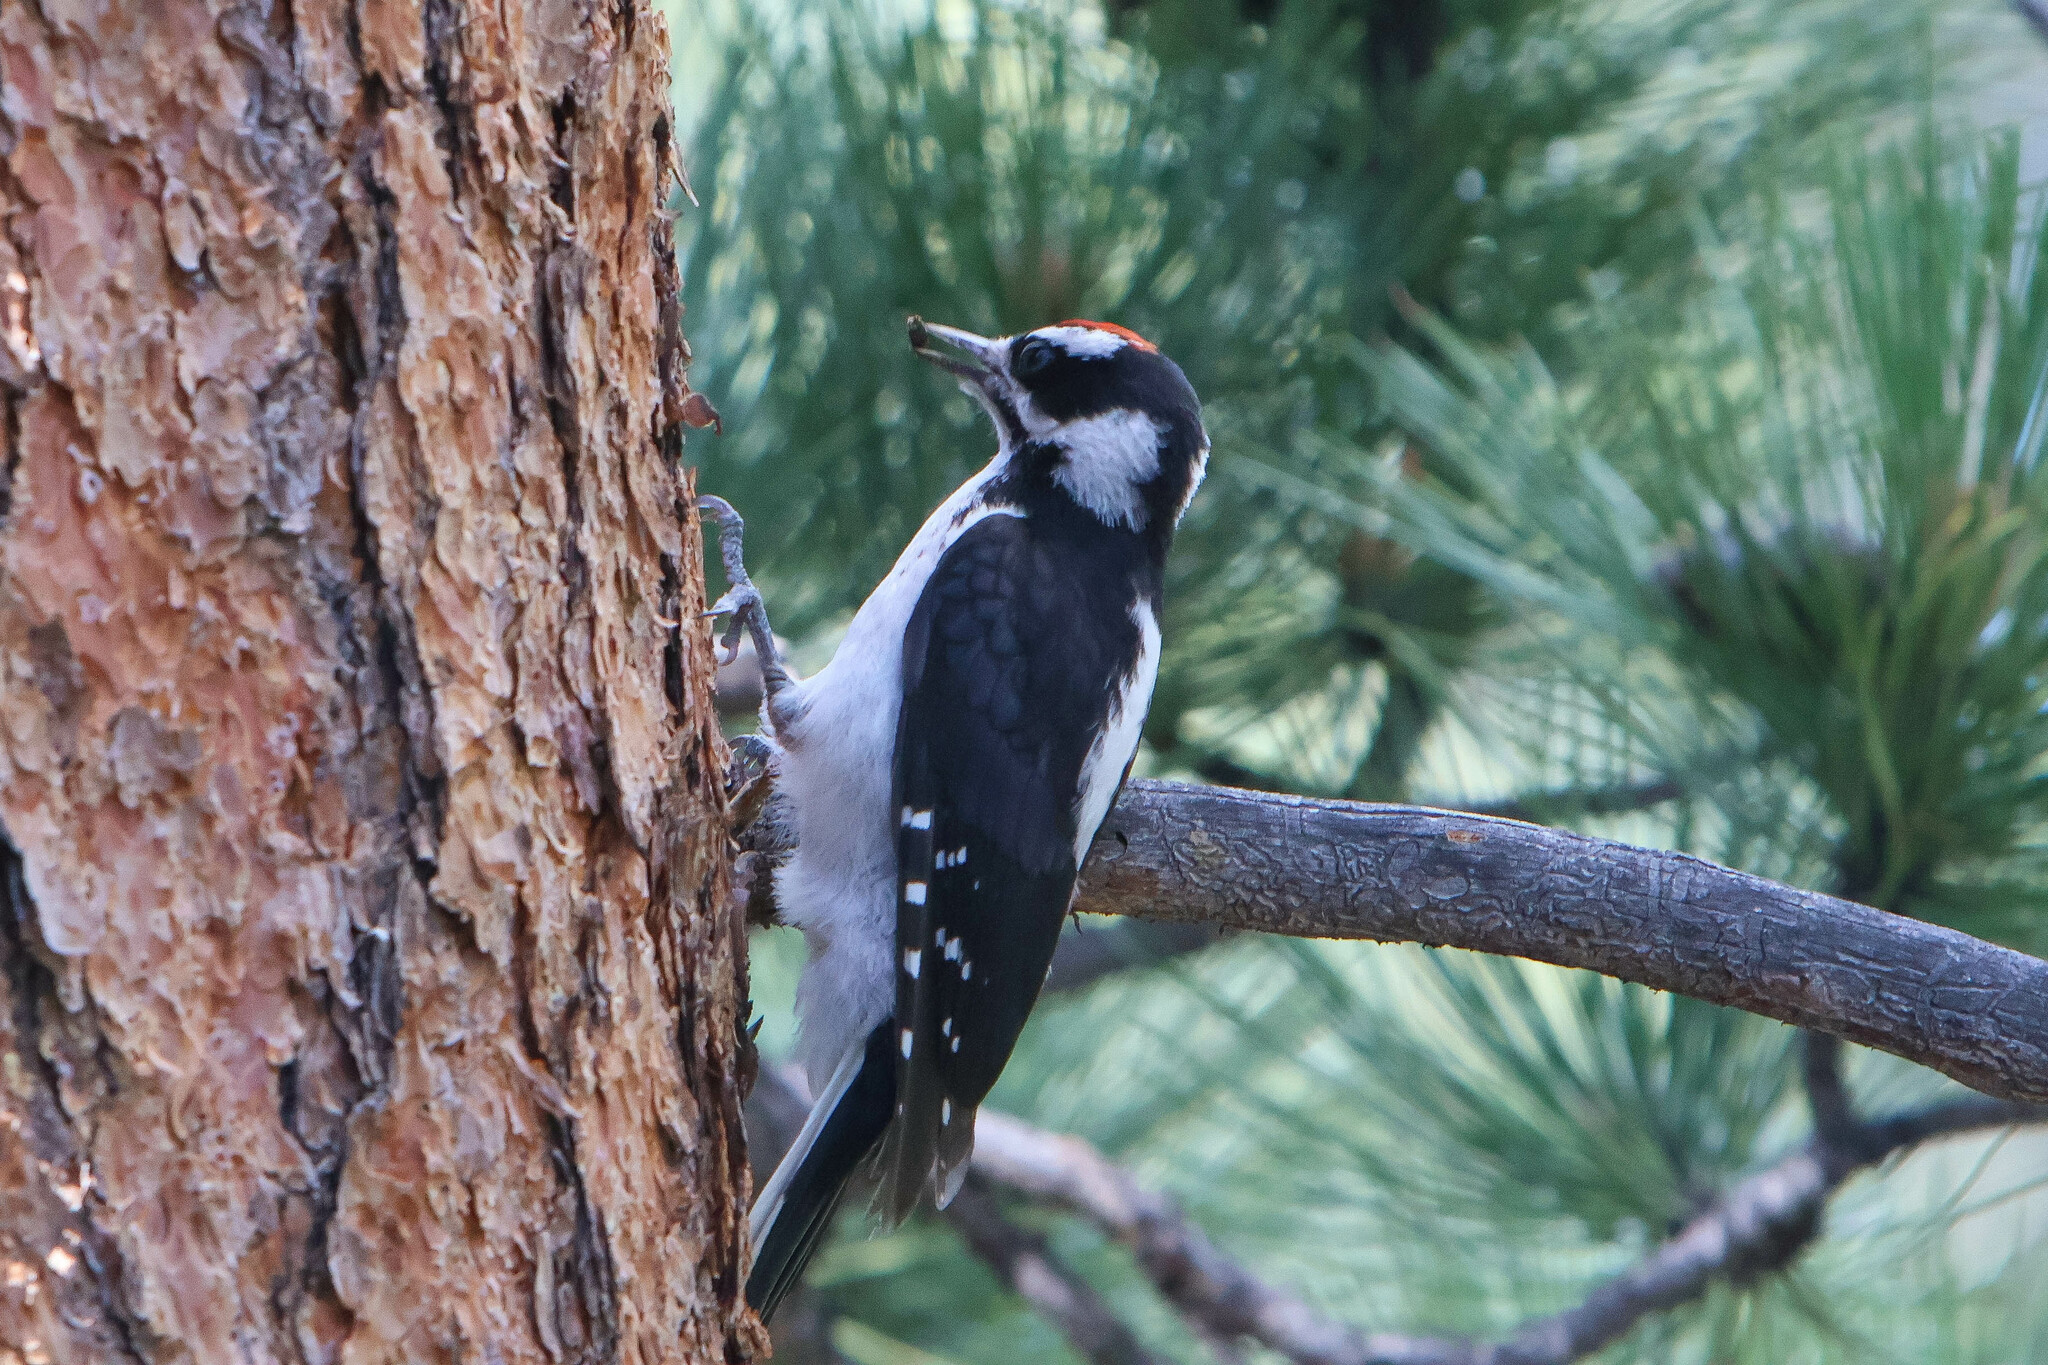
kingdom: Animalia
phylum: Chordata
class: Aves
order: Piciformes
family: Picidae
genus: Leuconotopicus
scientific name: Leuconotopicus villosus
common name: Hairy woodpecker
